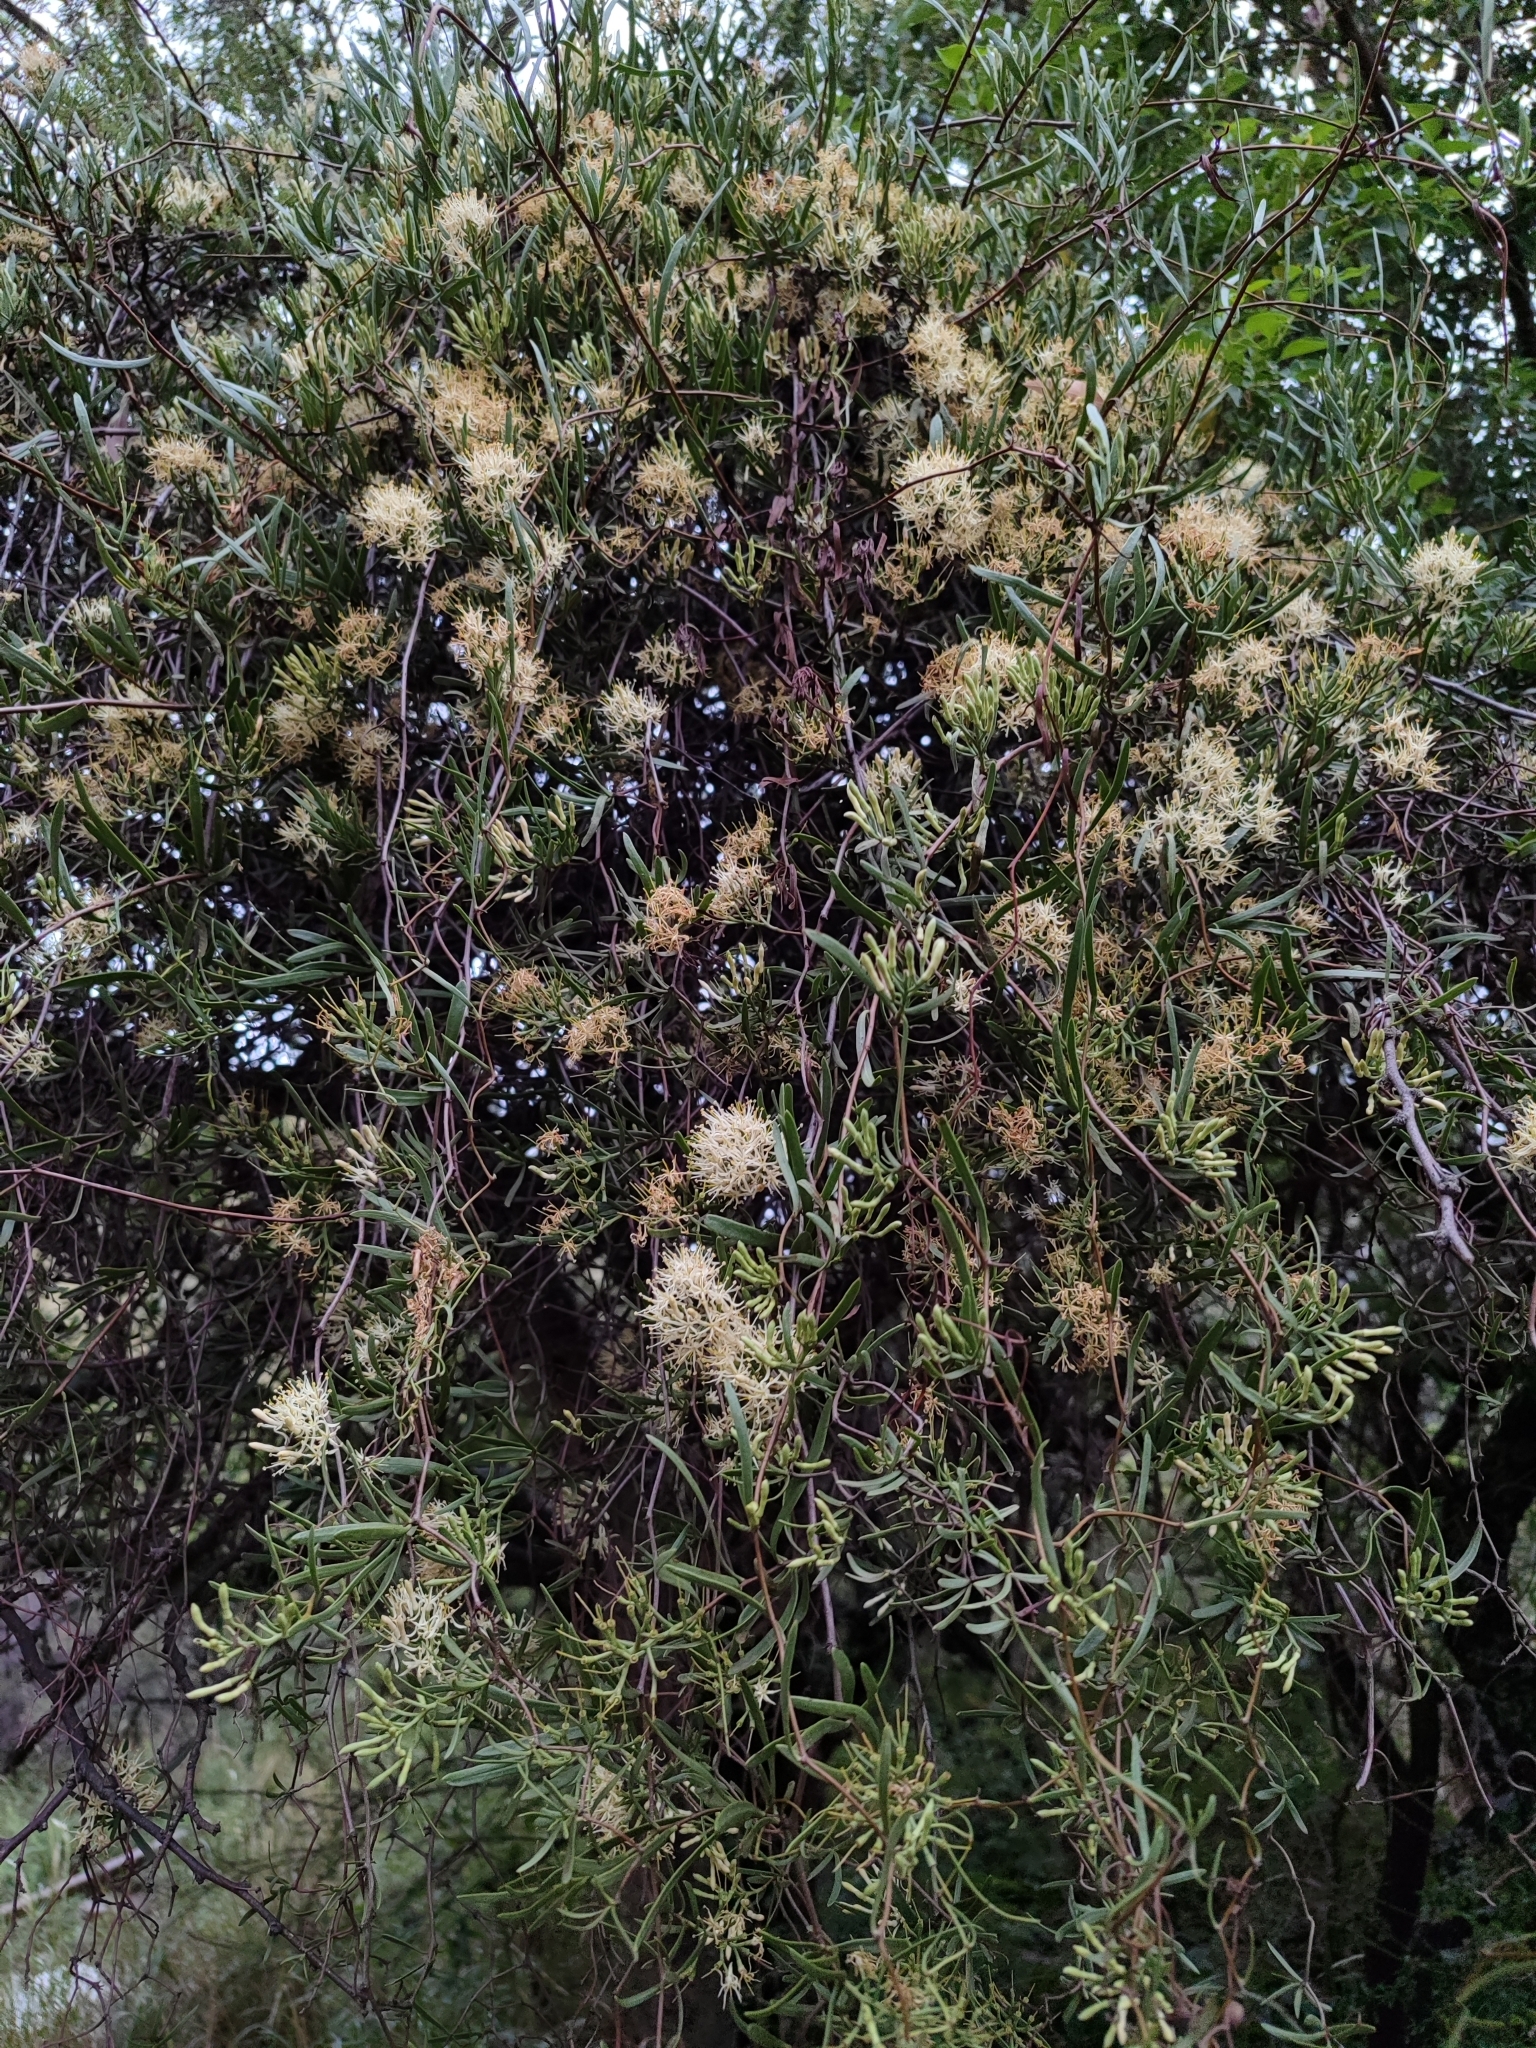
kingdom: Plantae
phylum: Tracheophyta
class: Magnoliopsida
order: Santalales
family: Loranthaceae
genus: Tripodanthus
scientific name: Tripodanthus flagellaris
